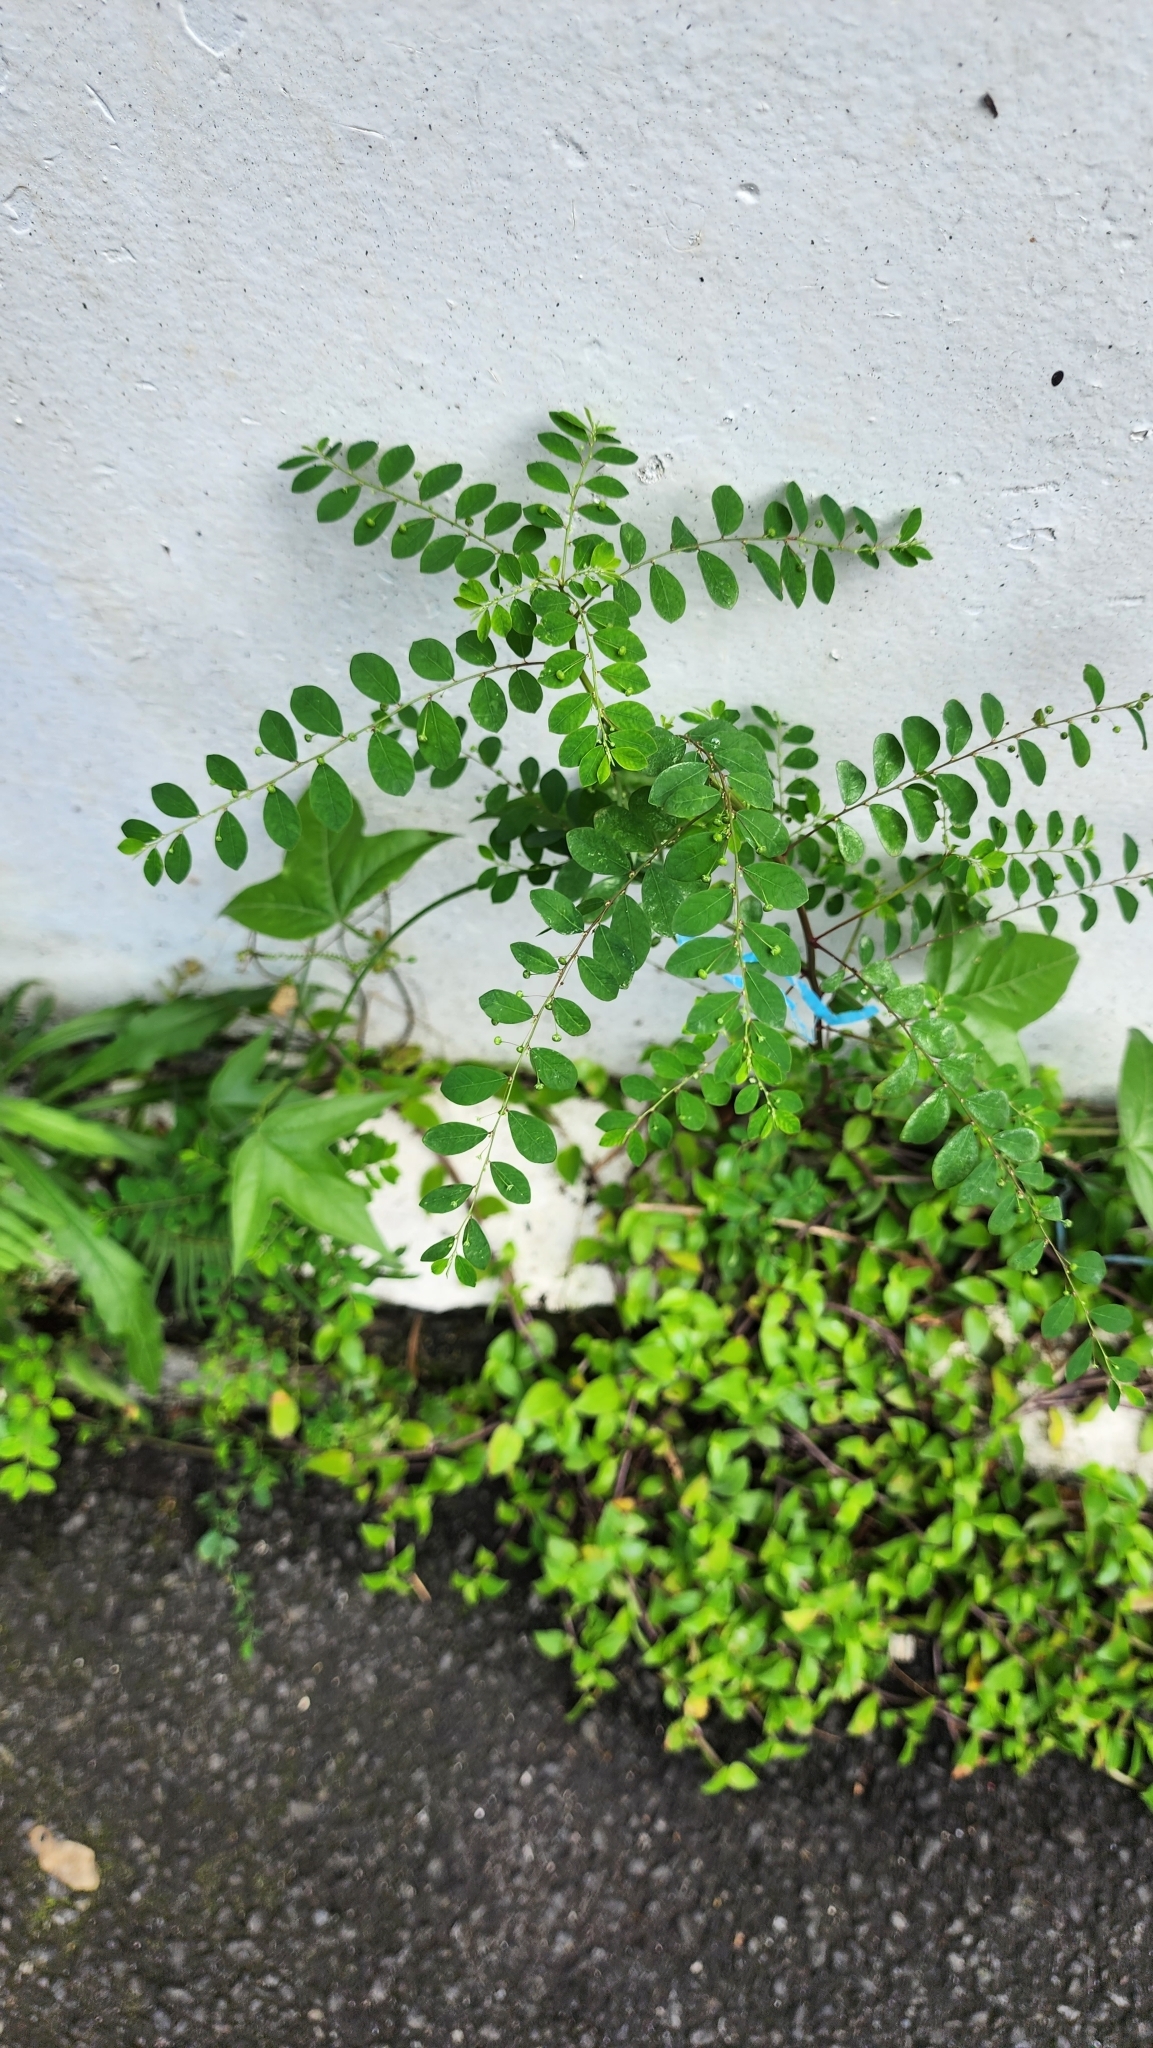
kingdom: Plantae
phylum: Tracheophyta
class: Magnoliopsida
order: Malpighiales
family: Phyllanthaceae
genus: Phyllanthus
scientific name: Phyllanthus tenellus
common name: Mascarene island leaf-flower
